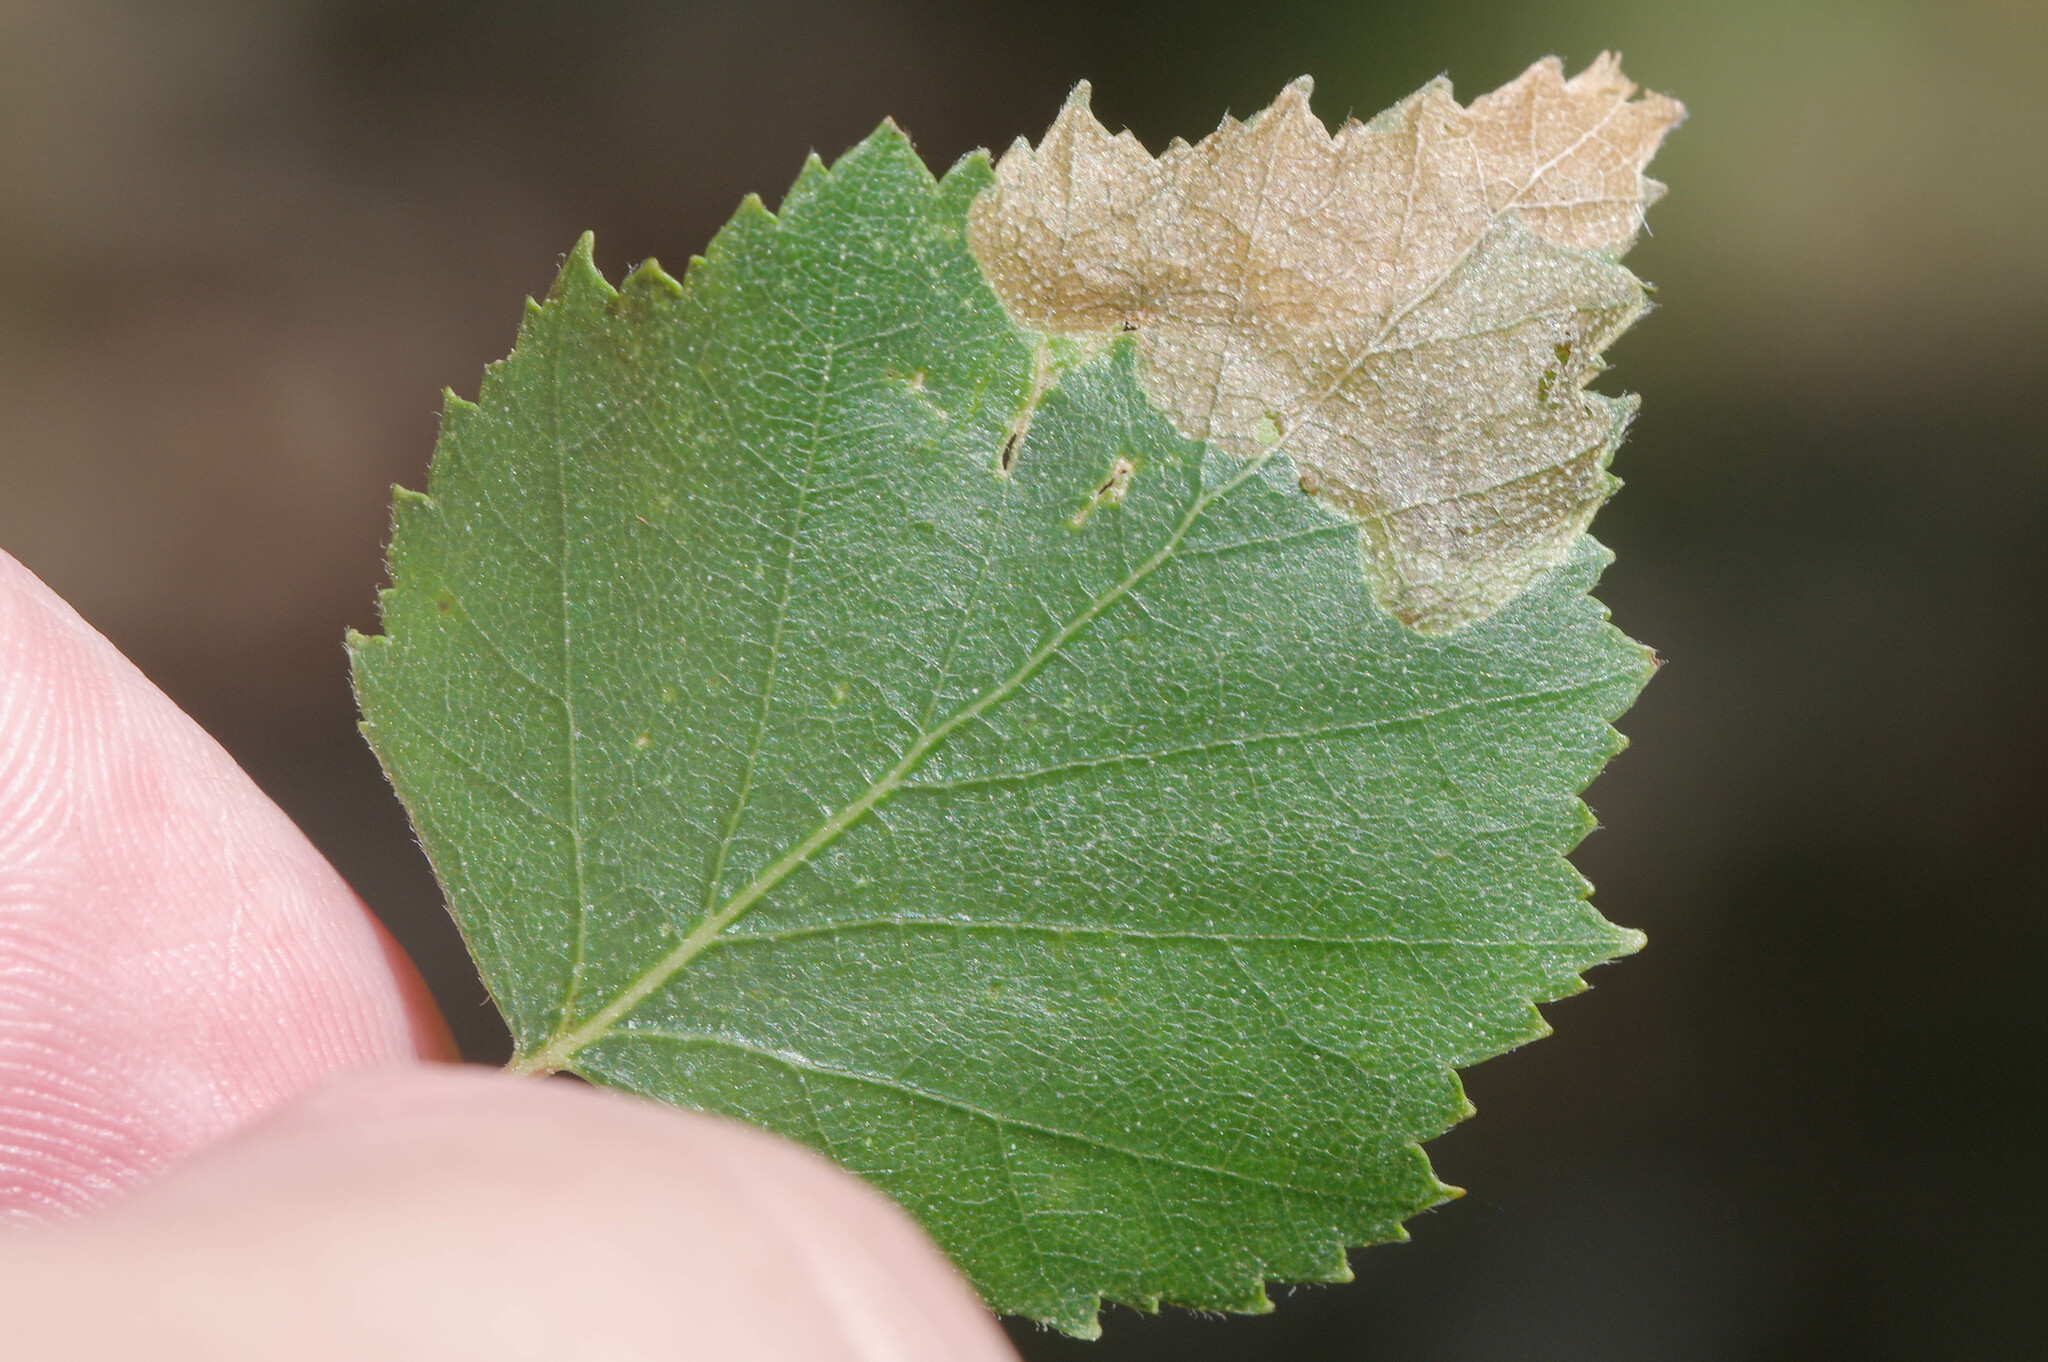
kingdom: Animalia
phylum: Arthropoda
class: Insecta
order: Hymenoptera
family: Tenthredinidae
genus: Scolioneura
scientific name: Scolioneura betuleti
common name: Wasp
